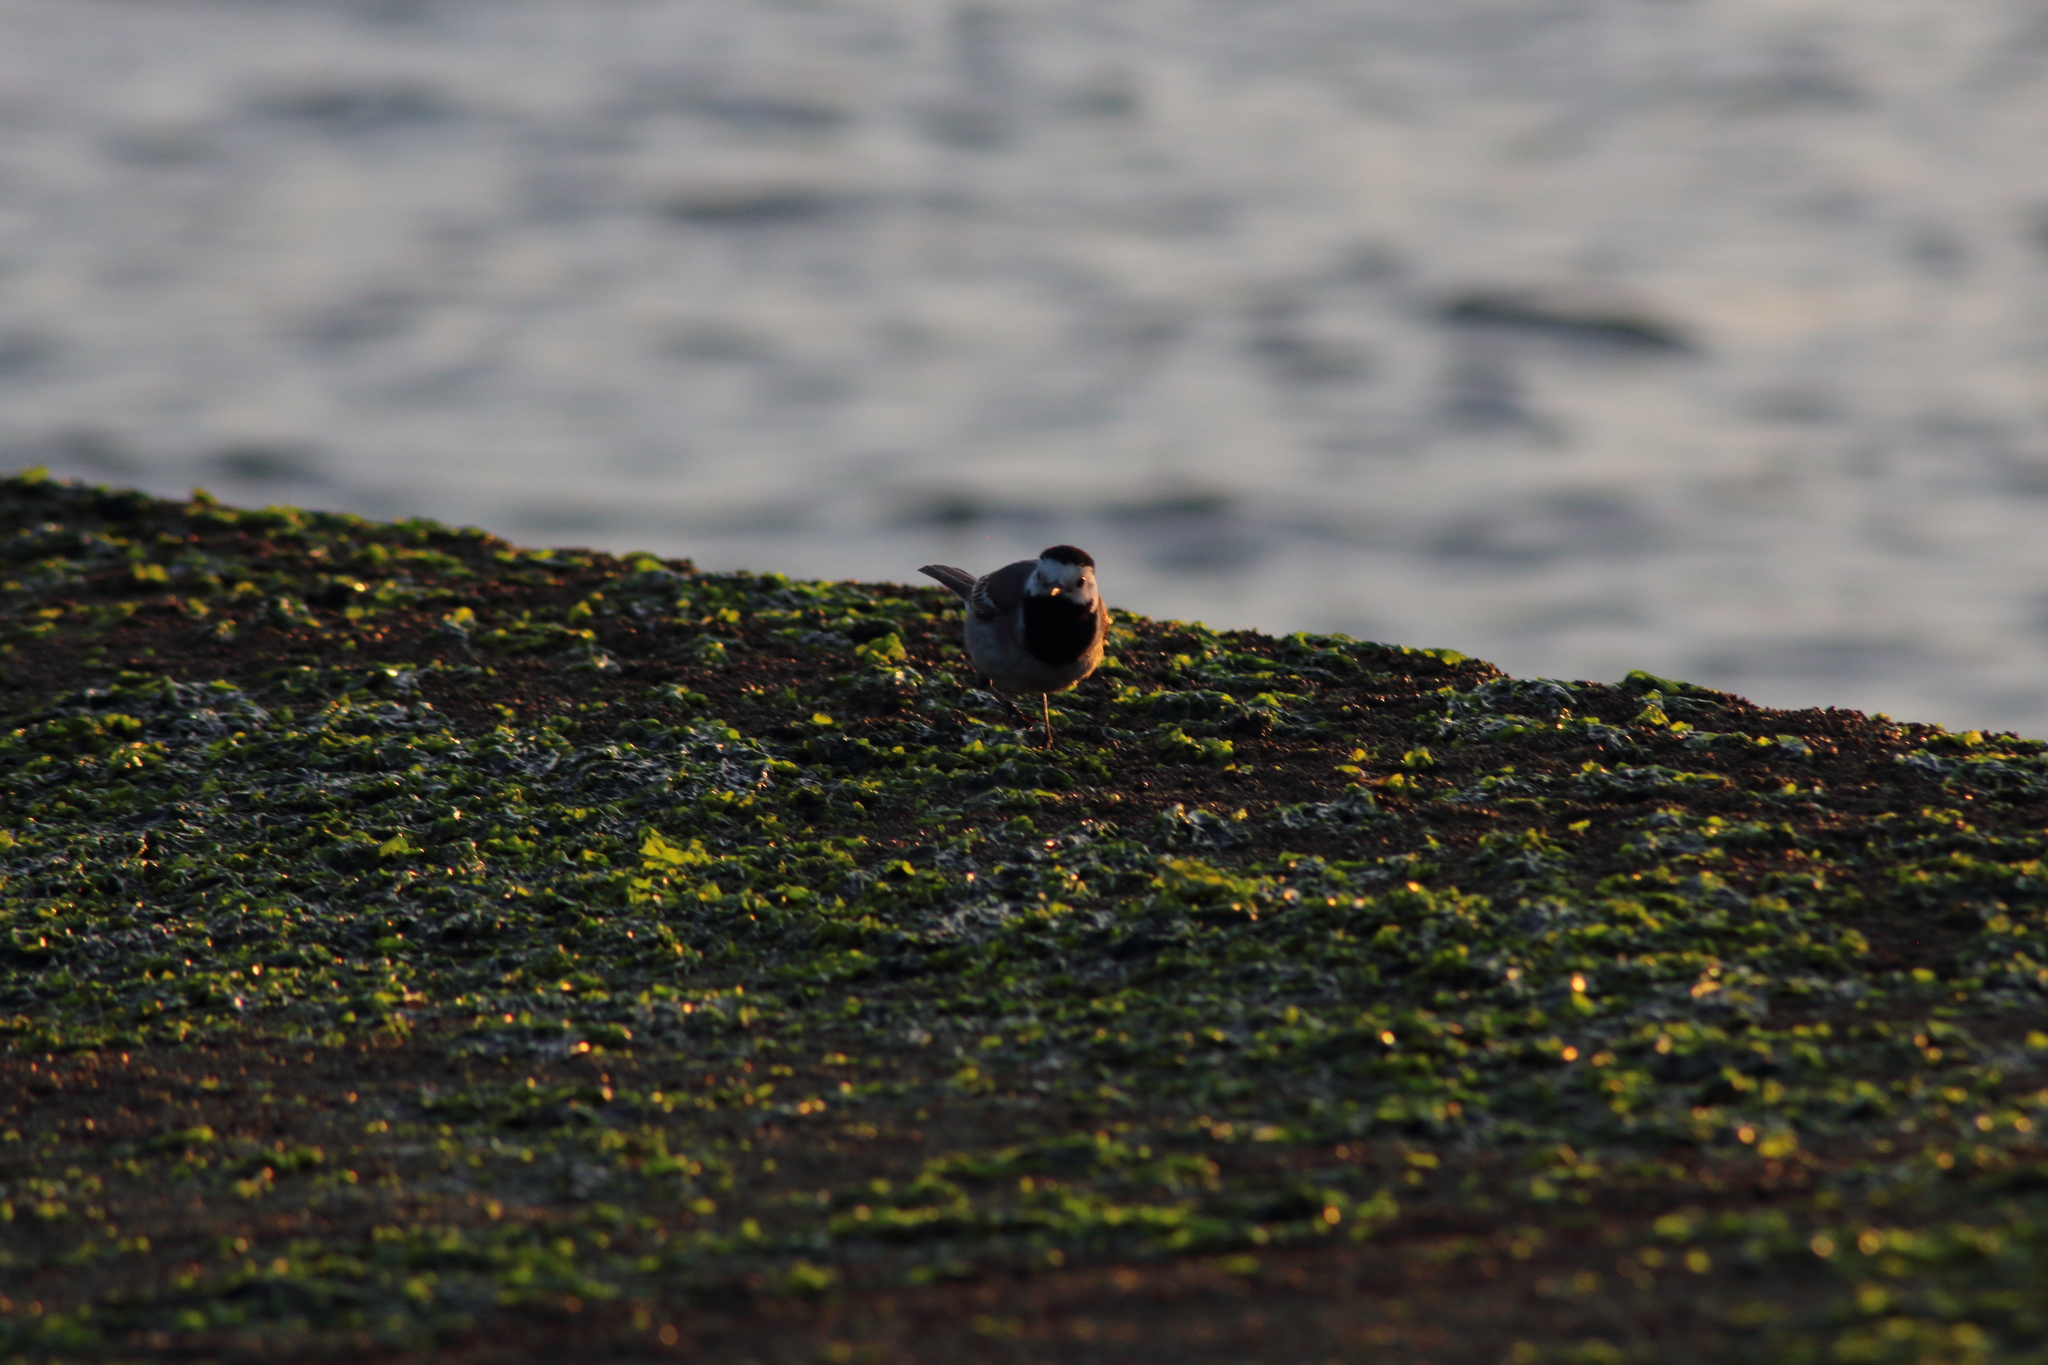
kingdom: Animalia
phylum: Chordata
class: Aves
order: Passeriformes
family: Motacillidae
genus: Motacilla
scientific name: Motacilla alba
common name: White wagtail
